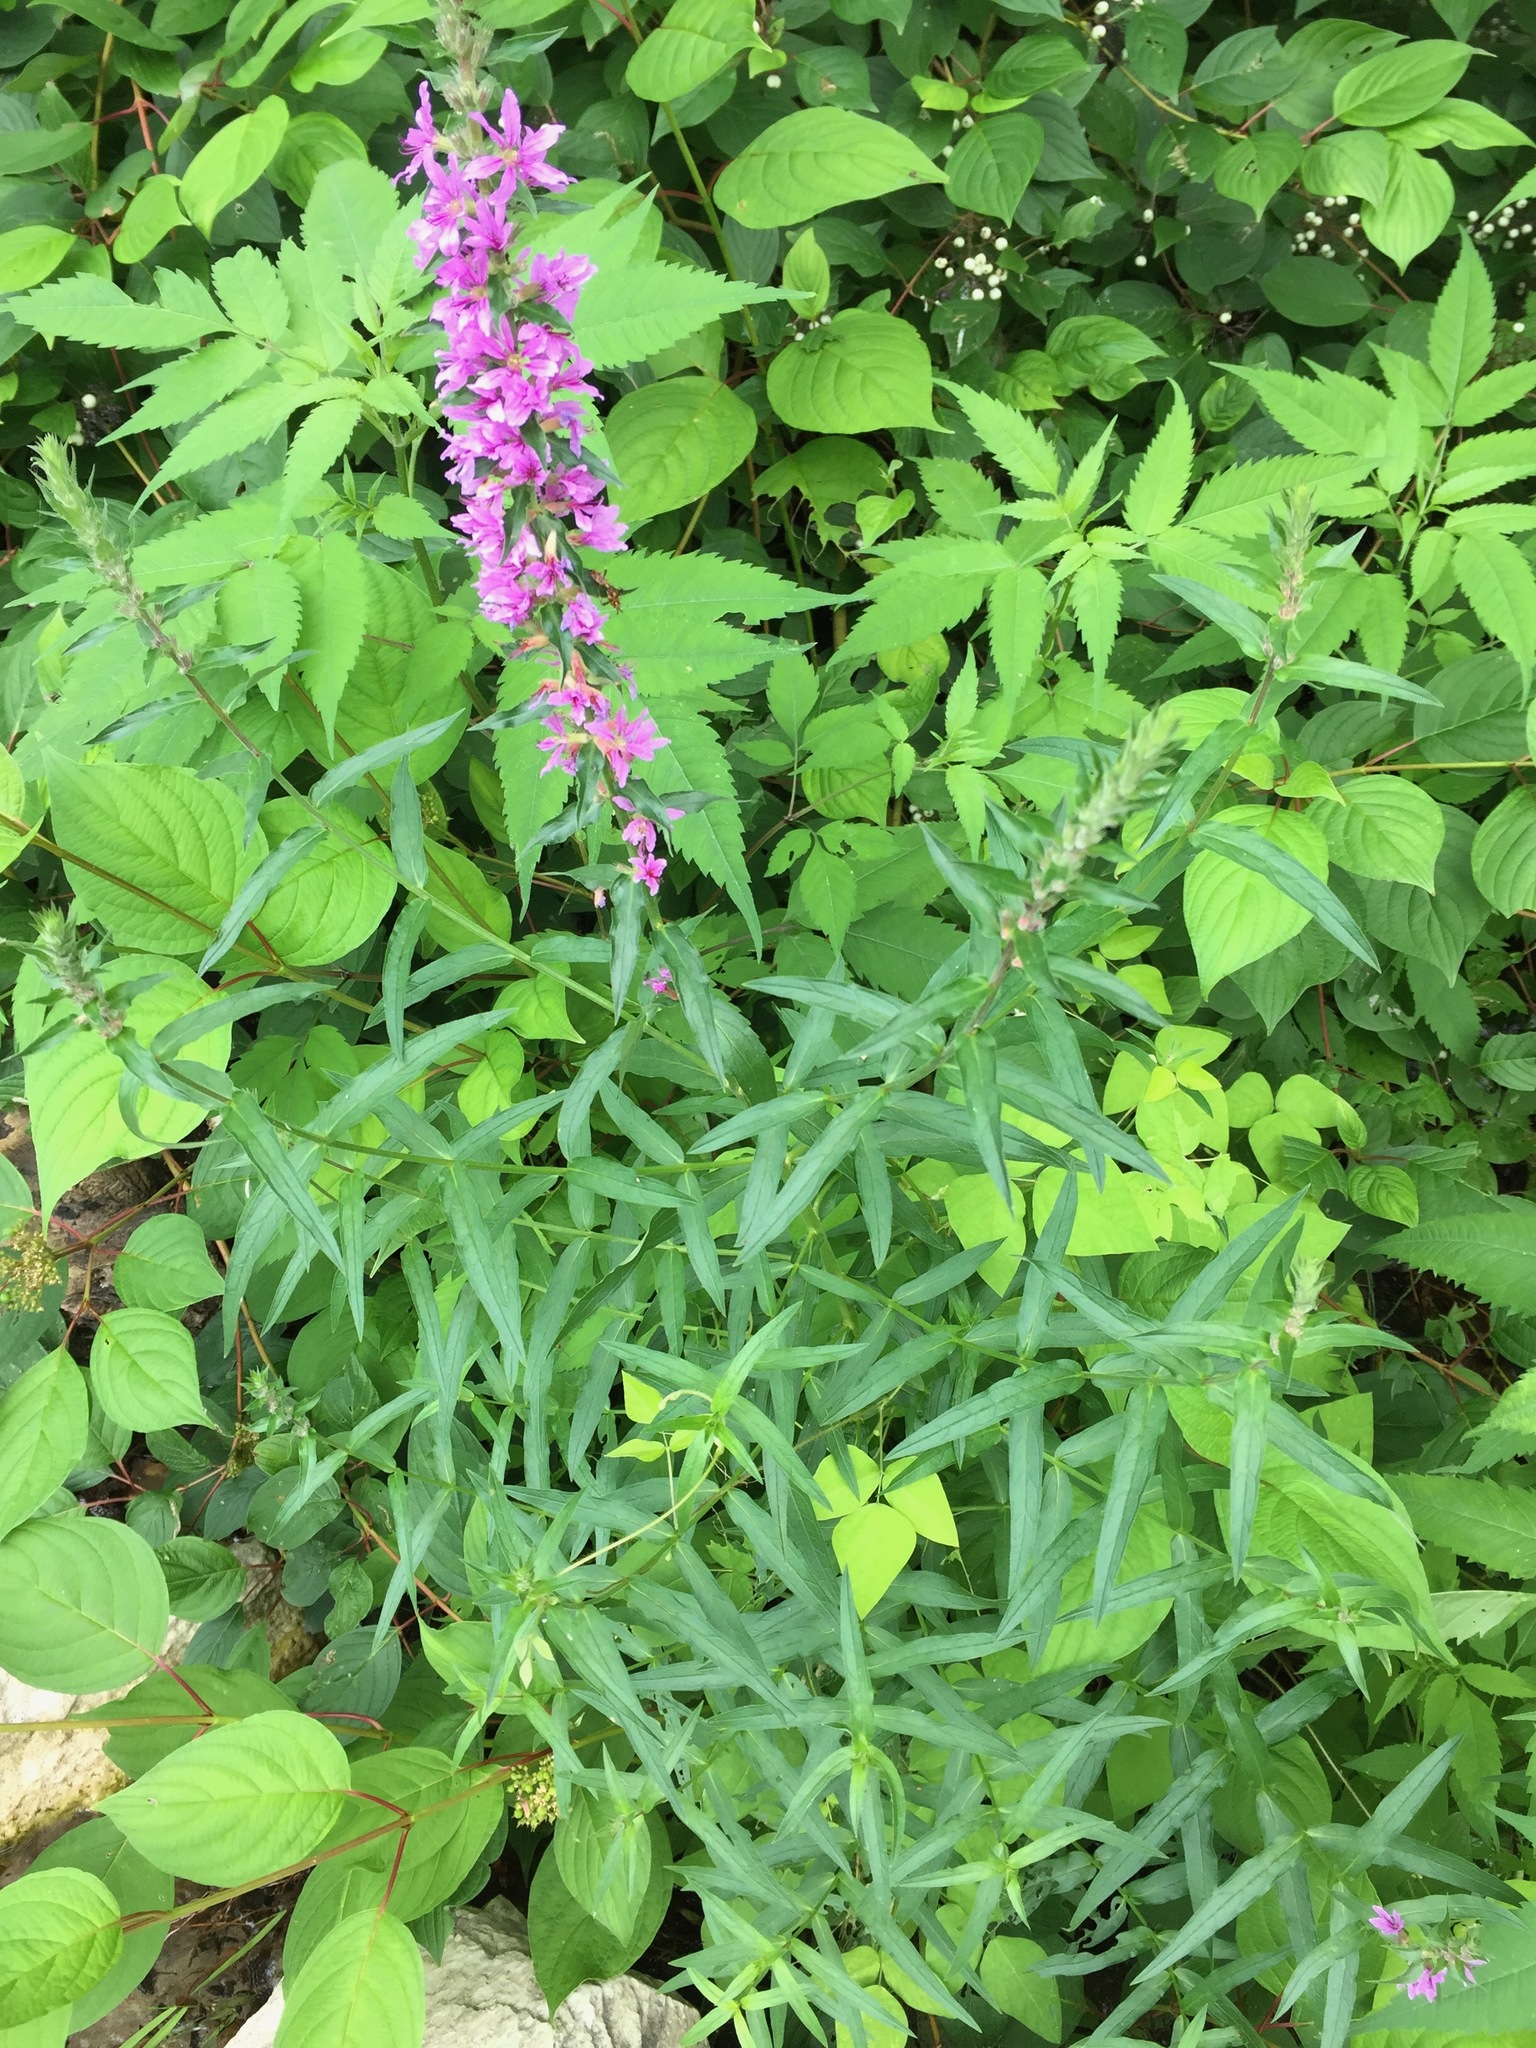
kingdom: Plantae
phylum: Tracheophyta
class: Magnoliopsida
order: Myrtales
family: Lythraceae
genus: Lythrum
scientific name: Lythrum salicaria
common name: Purple loosestrife
